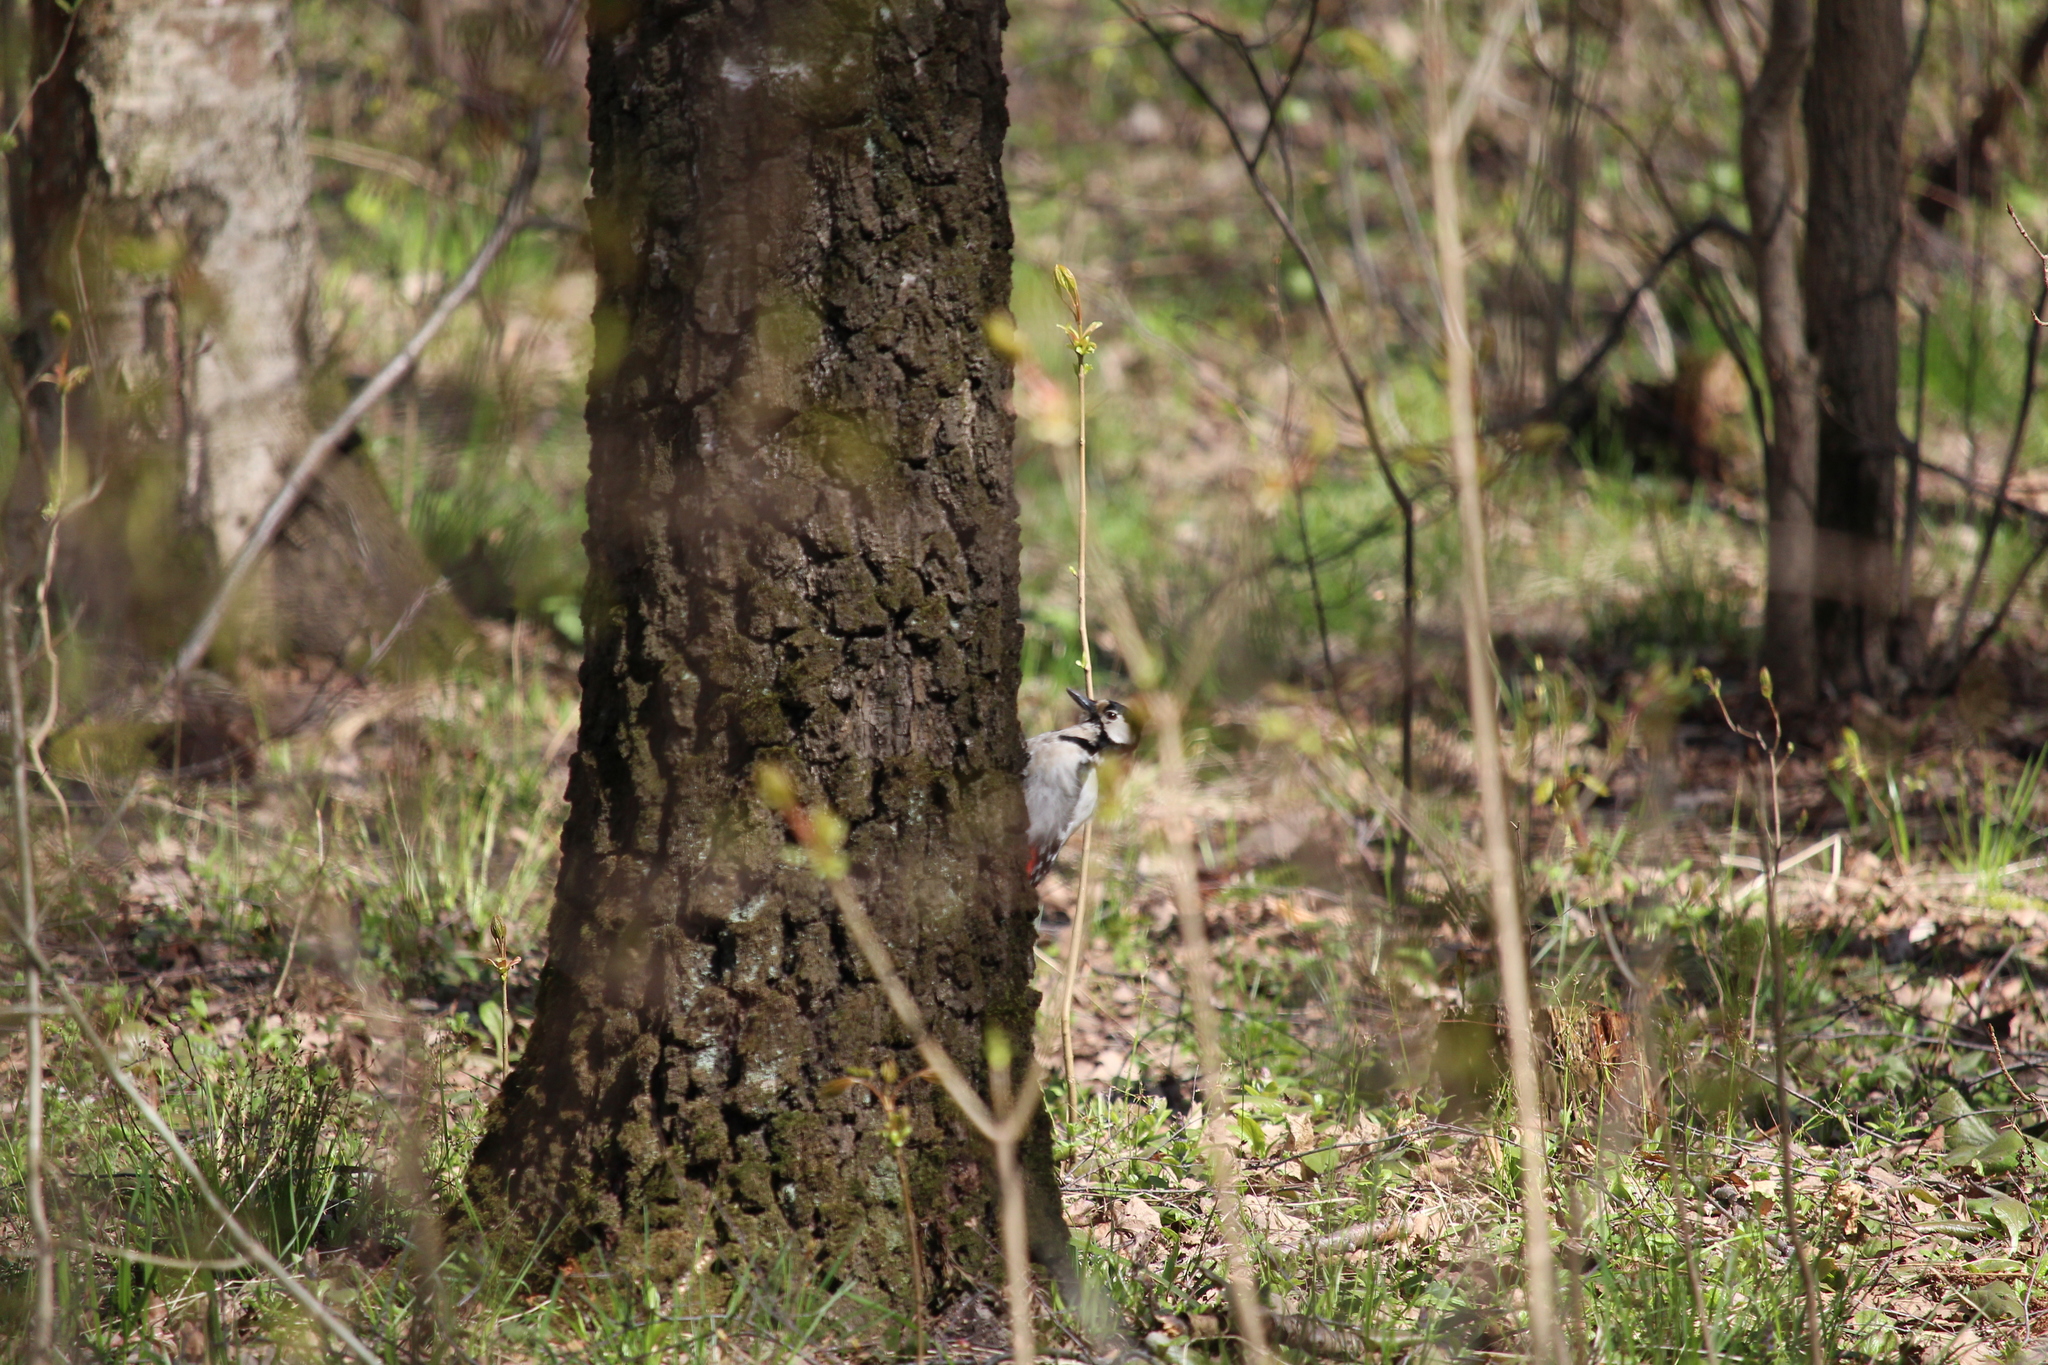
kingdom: Animalia
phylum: Chordata
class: Aves
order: Piciformes
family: Picidae
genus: Dendrocopos
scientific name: Dendrocopos major
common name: Great spotted woodpecker
